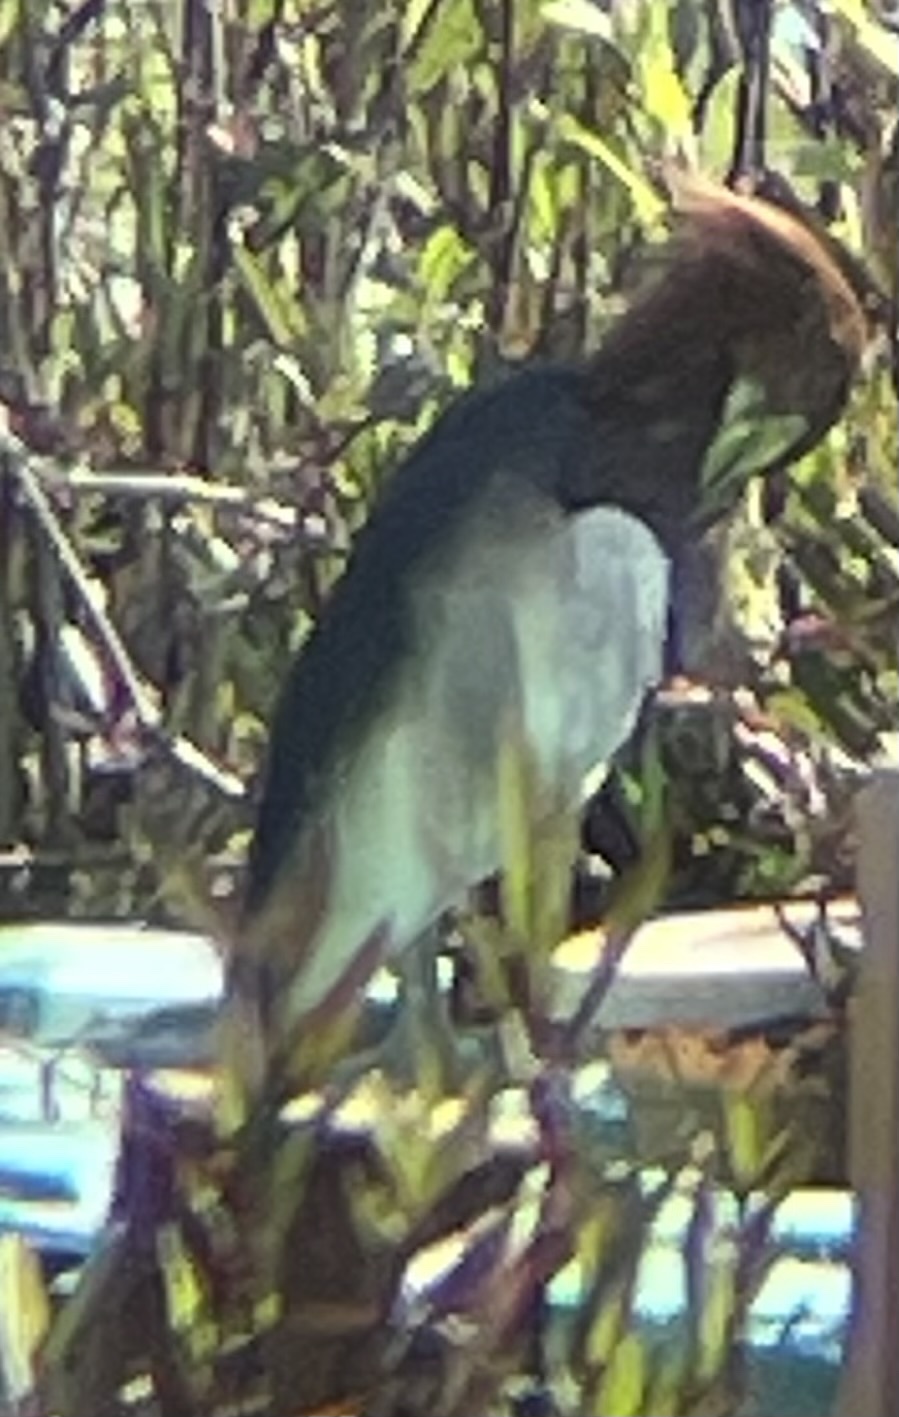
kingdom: Animalia
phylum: Chordata
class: Aves
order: Pelecaniformes
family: Ardeidae
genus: Ardeola
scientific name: Ardeola bacchus
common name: Chinese pond heron
